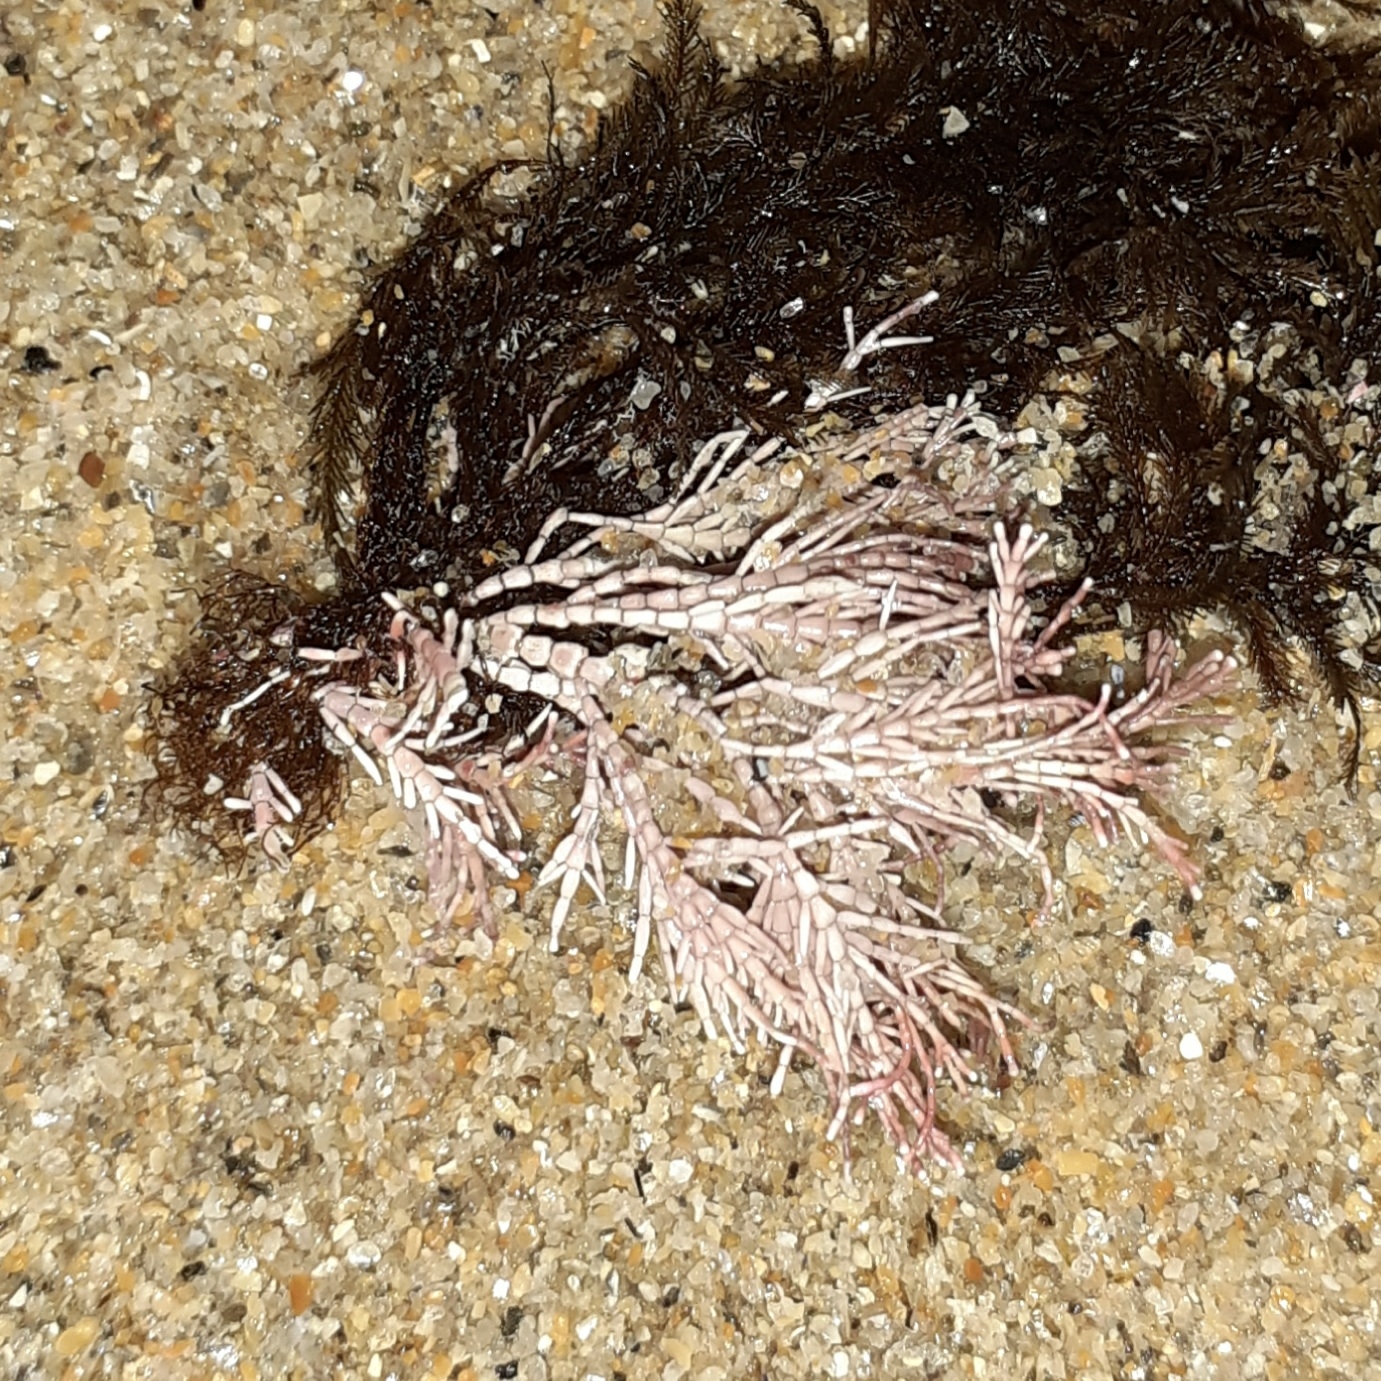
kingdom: Plantae
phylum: Rhodophyta
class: Florideophyceae
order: Corallinales
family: Corallinaceae
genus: Corallina
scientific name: Corallina officinalis
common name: Coral weed
